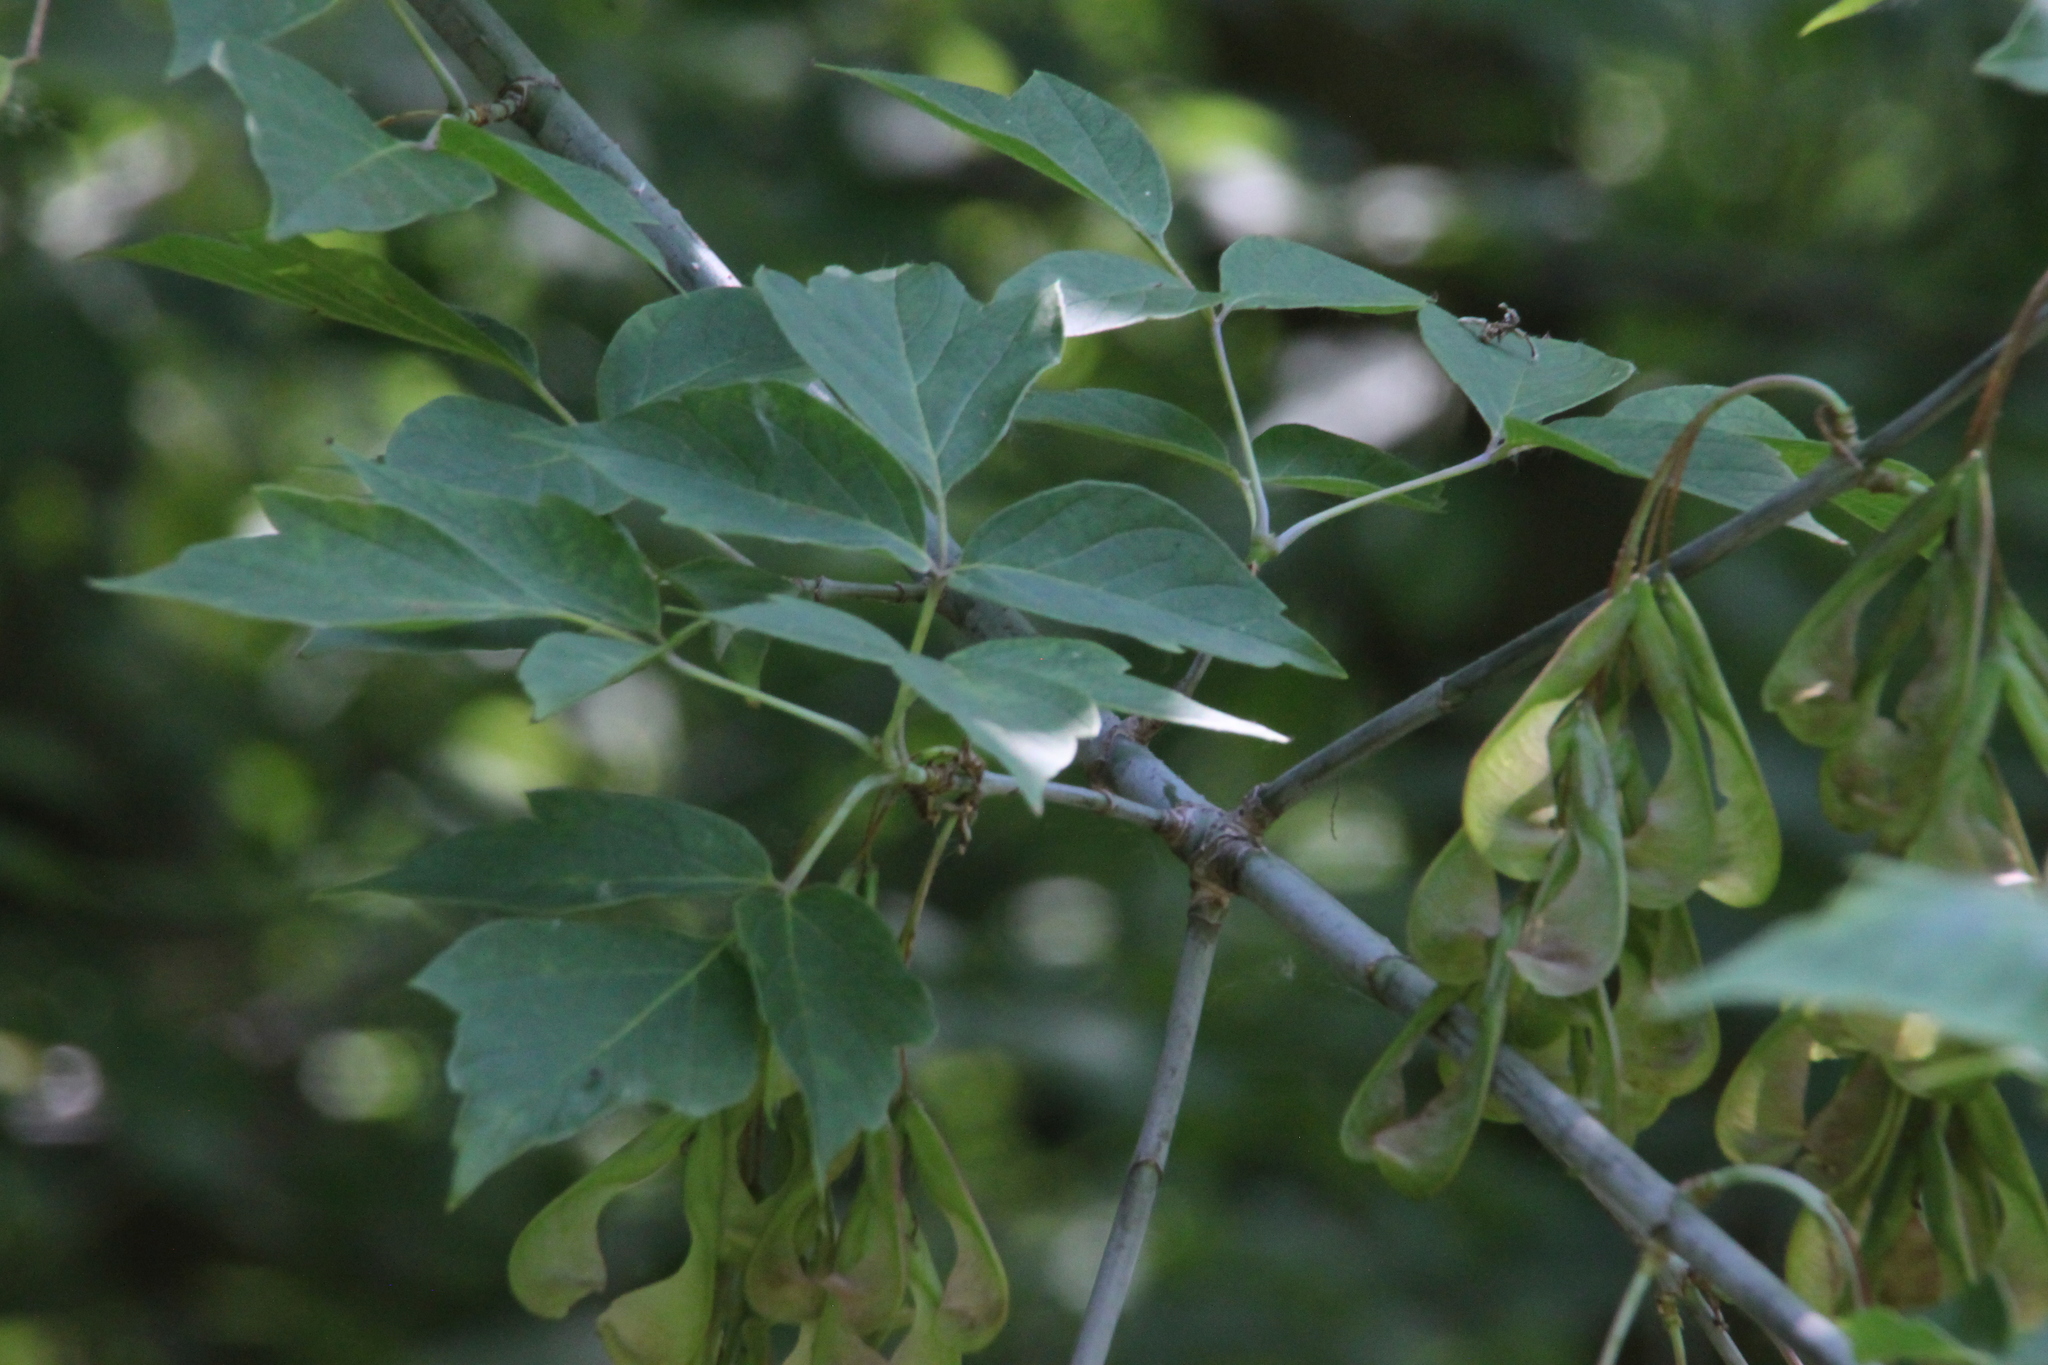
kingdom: Plantae
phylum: Tracheophyta
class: Magnoliopsida
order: Sapindales
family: Sapindaceae
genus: Acer
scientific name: Acer negundo
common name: Ashleaf maple
